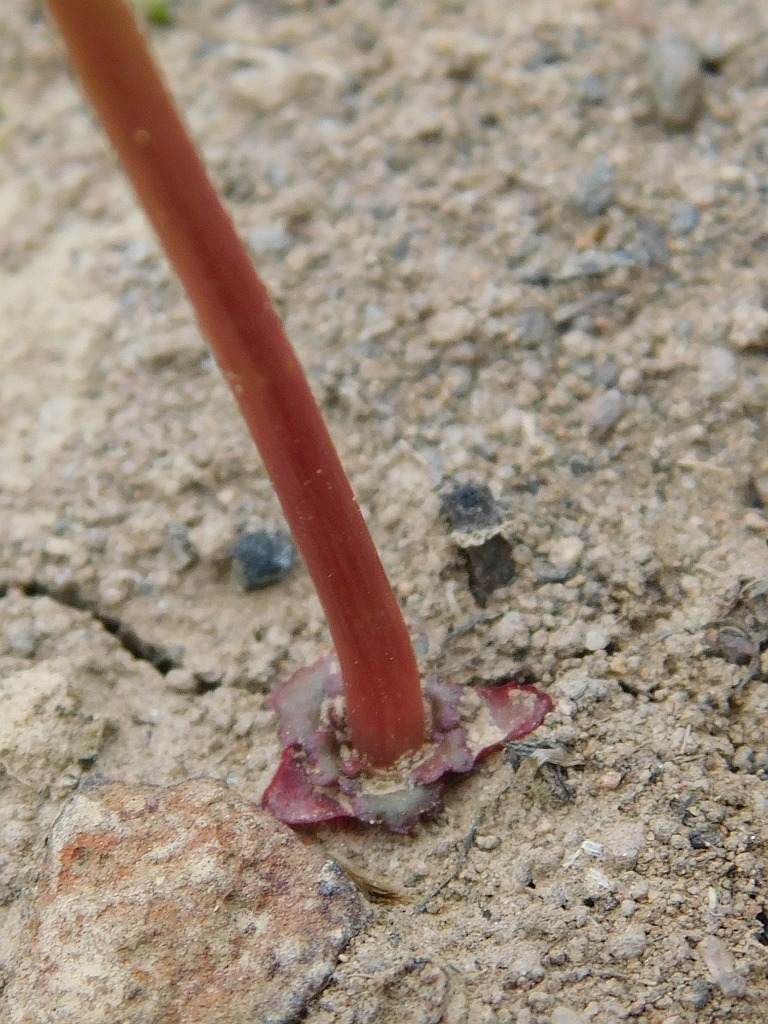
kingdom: Plantae
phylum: Tracheophyta
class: Magnoliopsida
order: Saxifragales
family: Crassulaceae
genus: Crassula
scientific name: Crassula capensis
